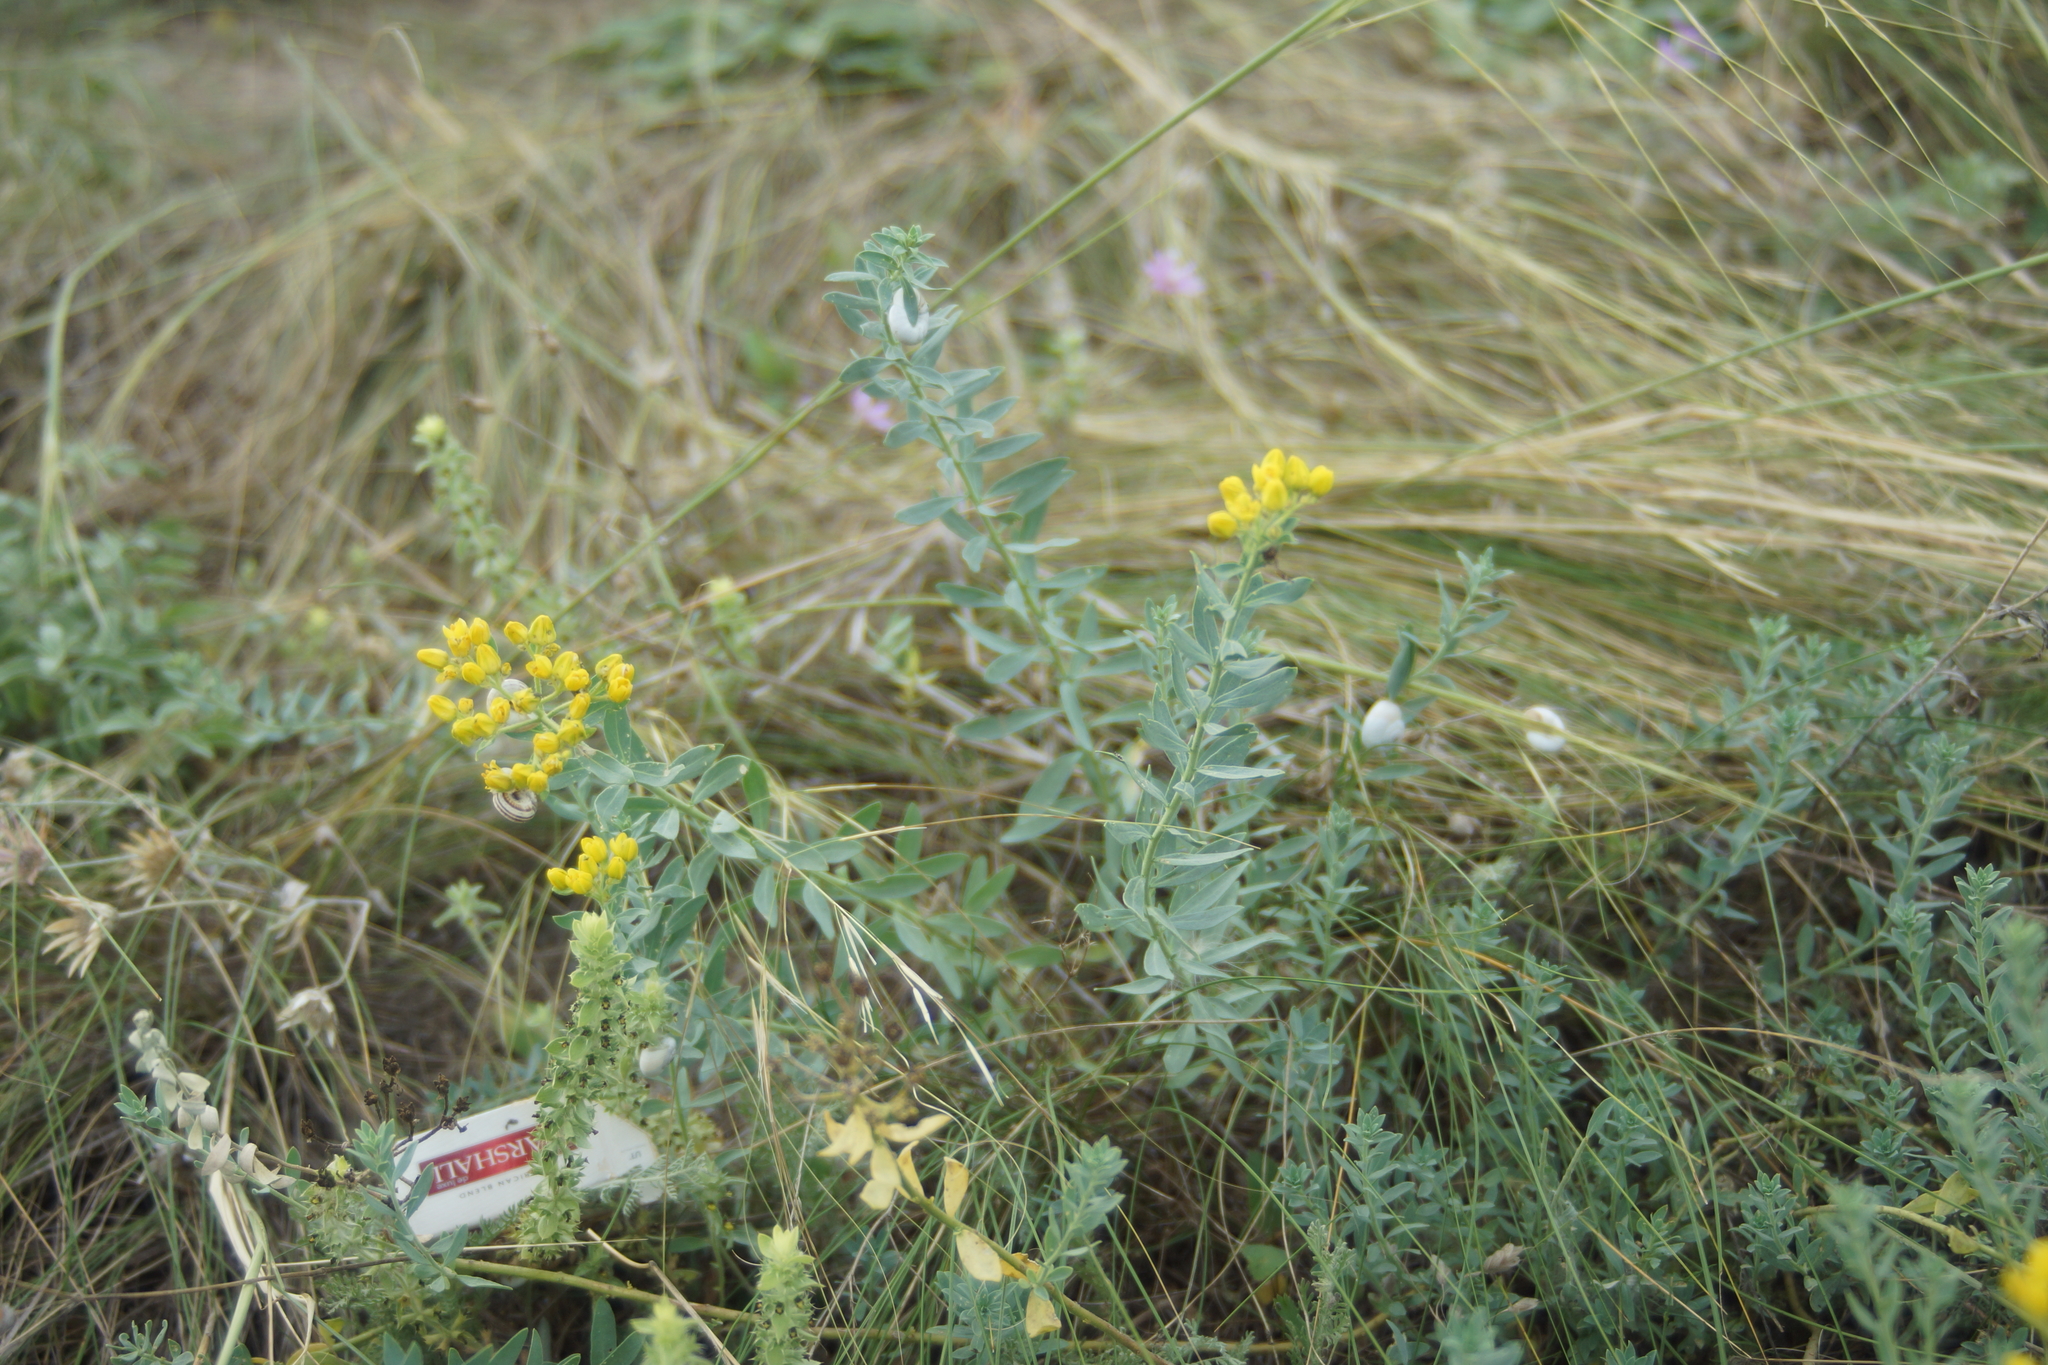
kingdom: Plantae
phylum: Tracheophyta
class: Magnoliopsida
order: Sapindales
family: Rutaceae
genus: Haplophyllum
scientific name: Haplophyllum suaveolens
